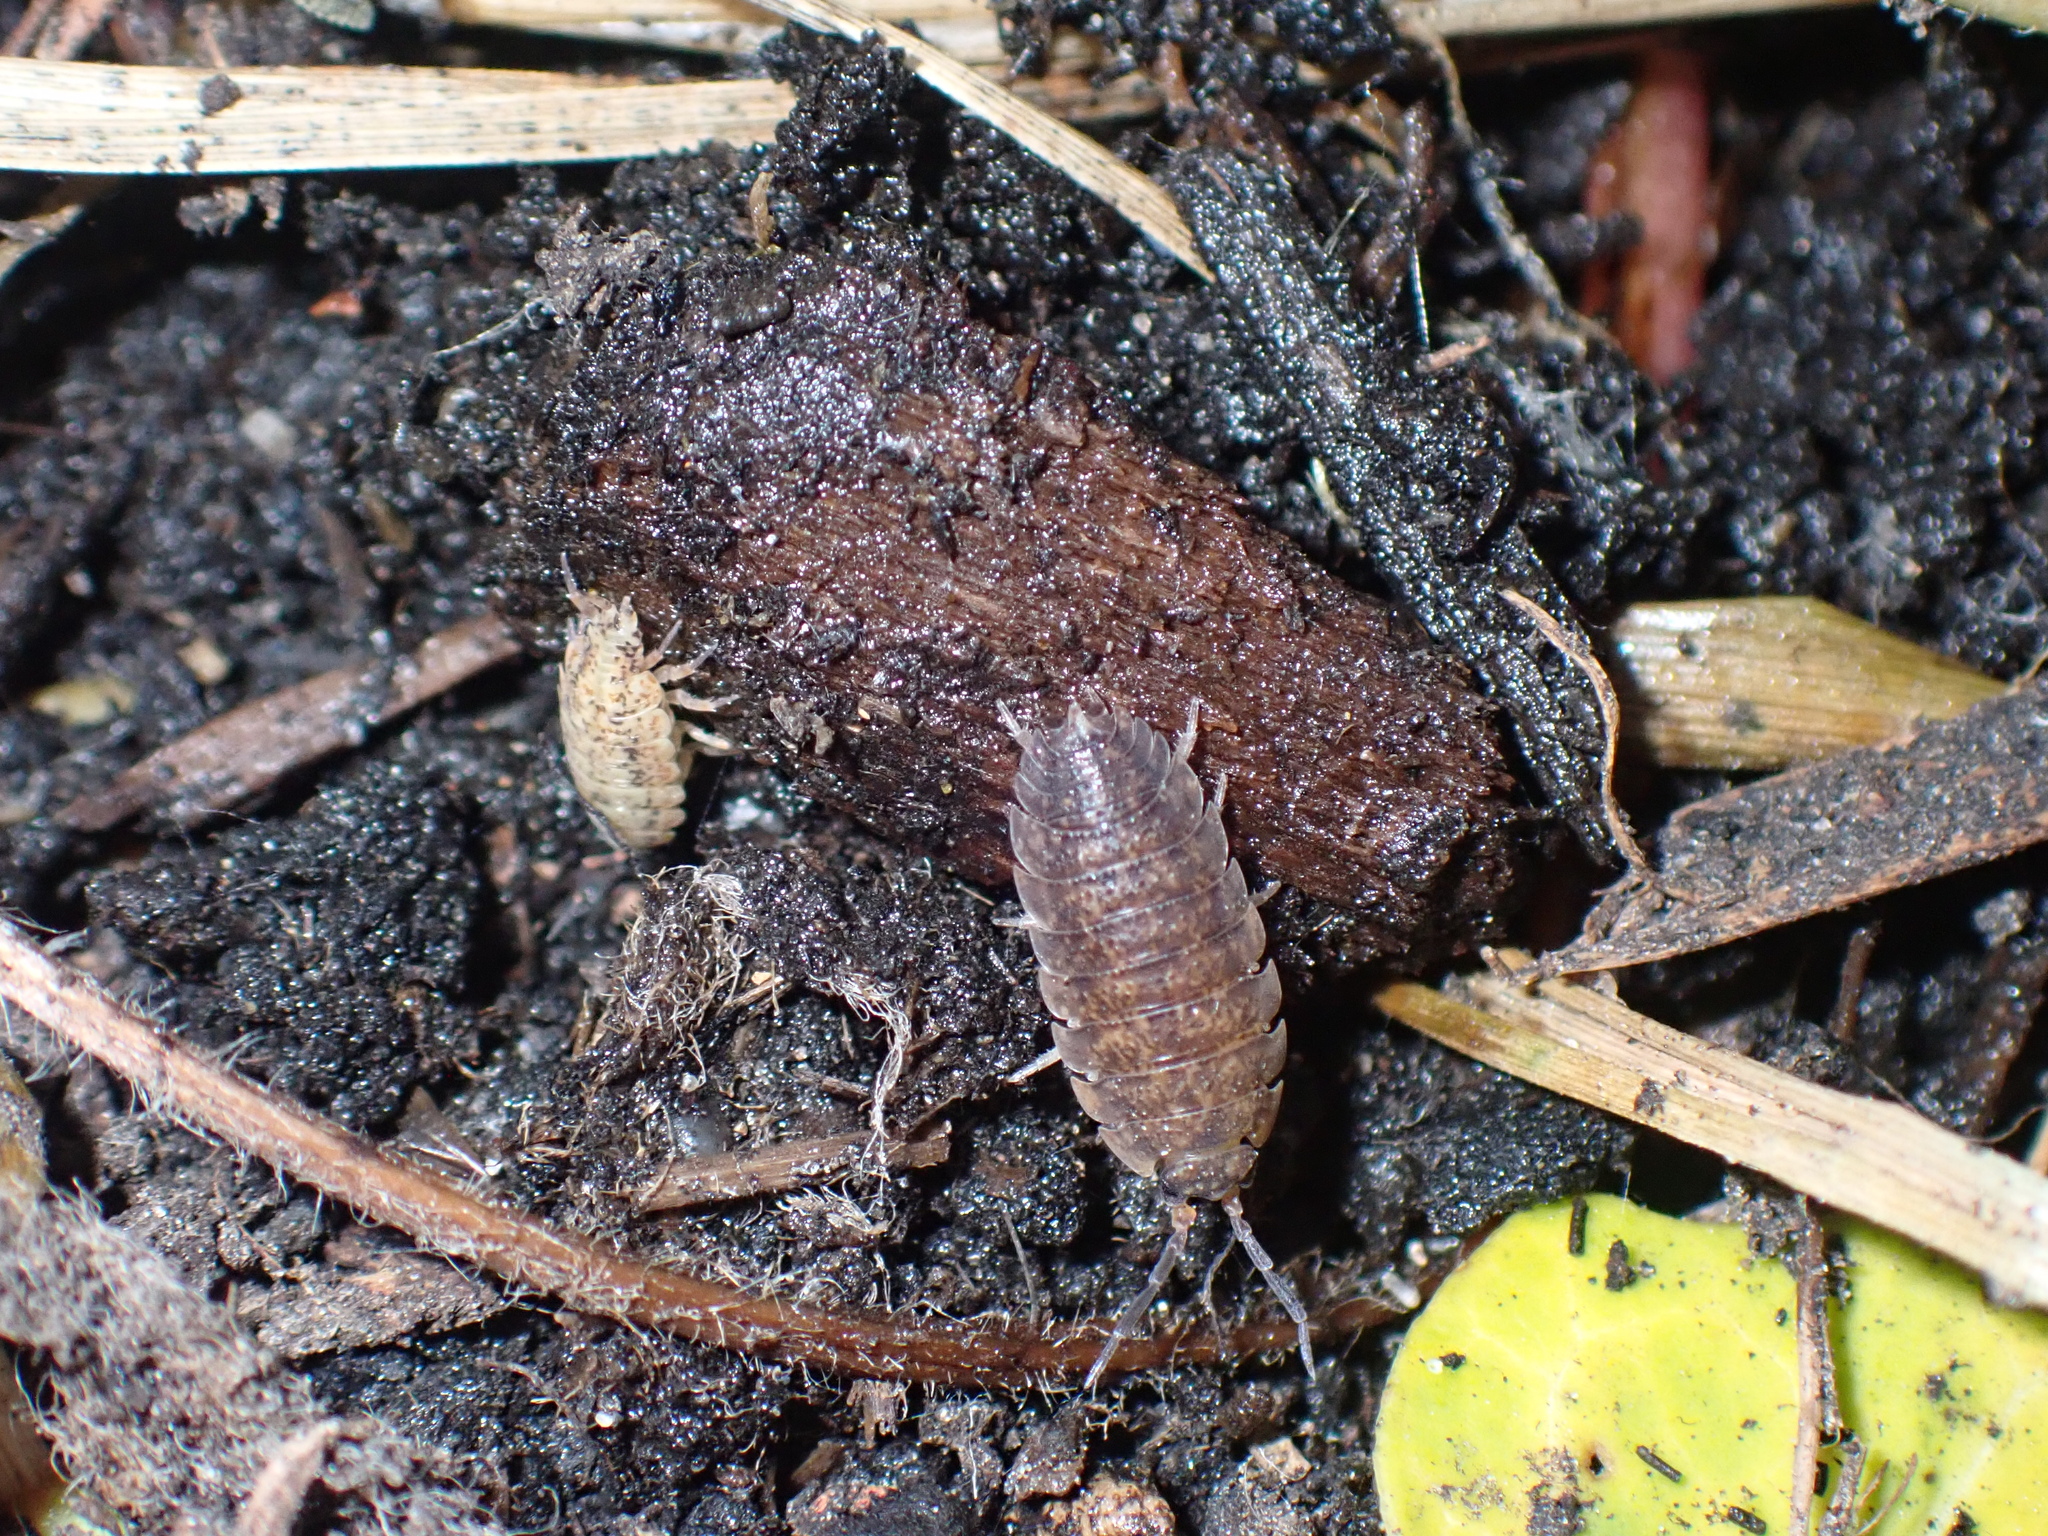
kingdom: Animalia
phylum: Arthropoda
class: Malacostraca
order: Isopoda
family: Porcellionidae
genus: Porcellio
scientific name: Porcellio scaber
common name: Common rough woodlouse
